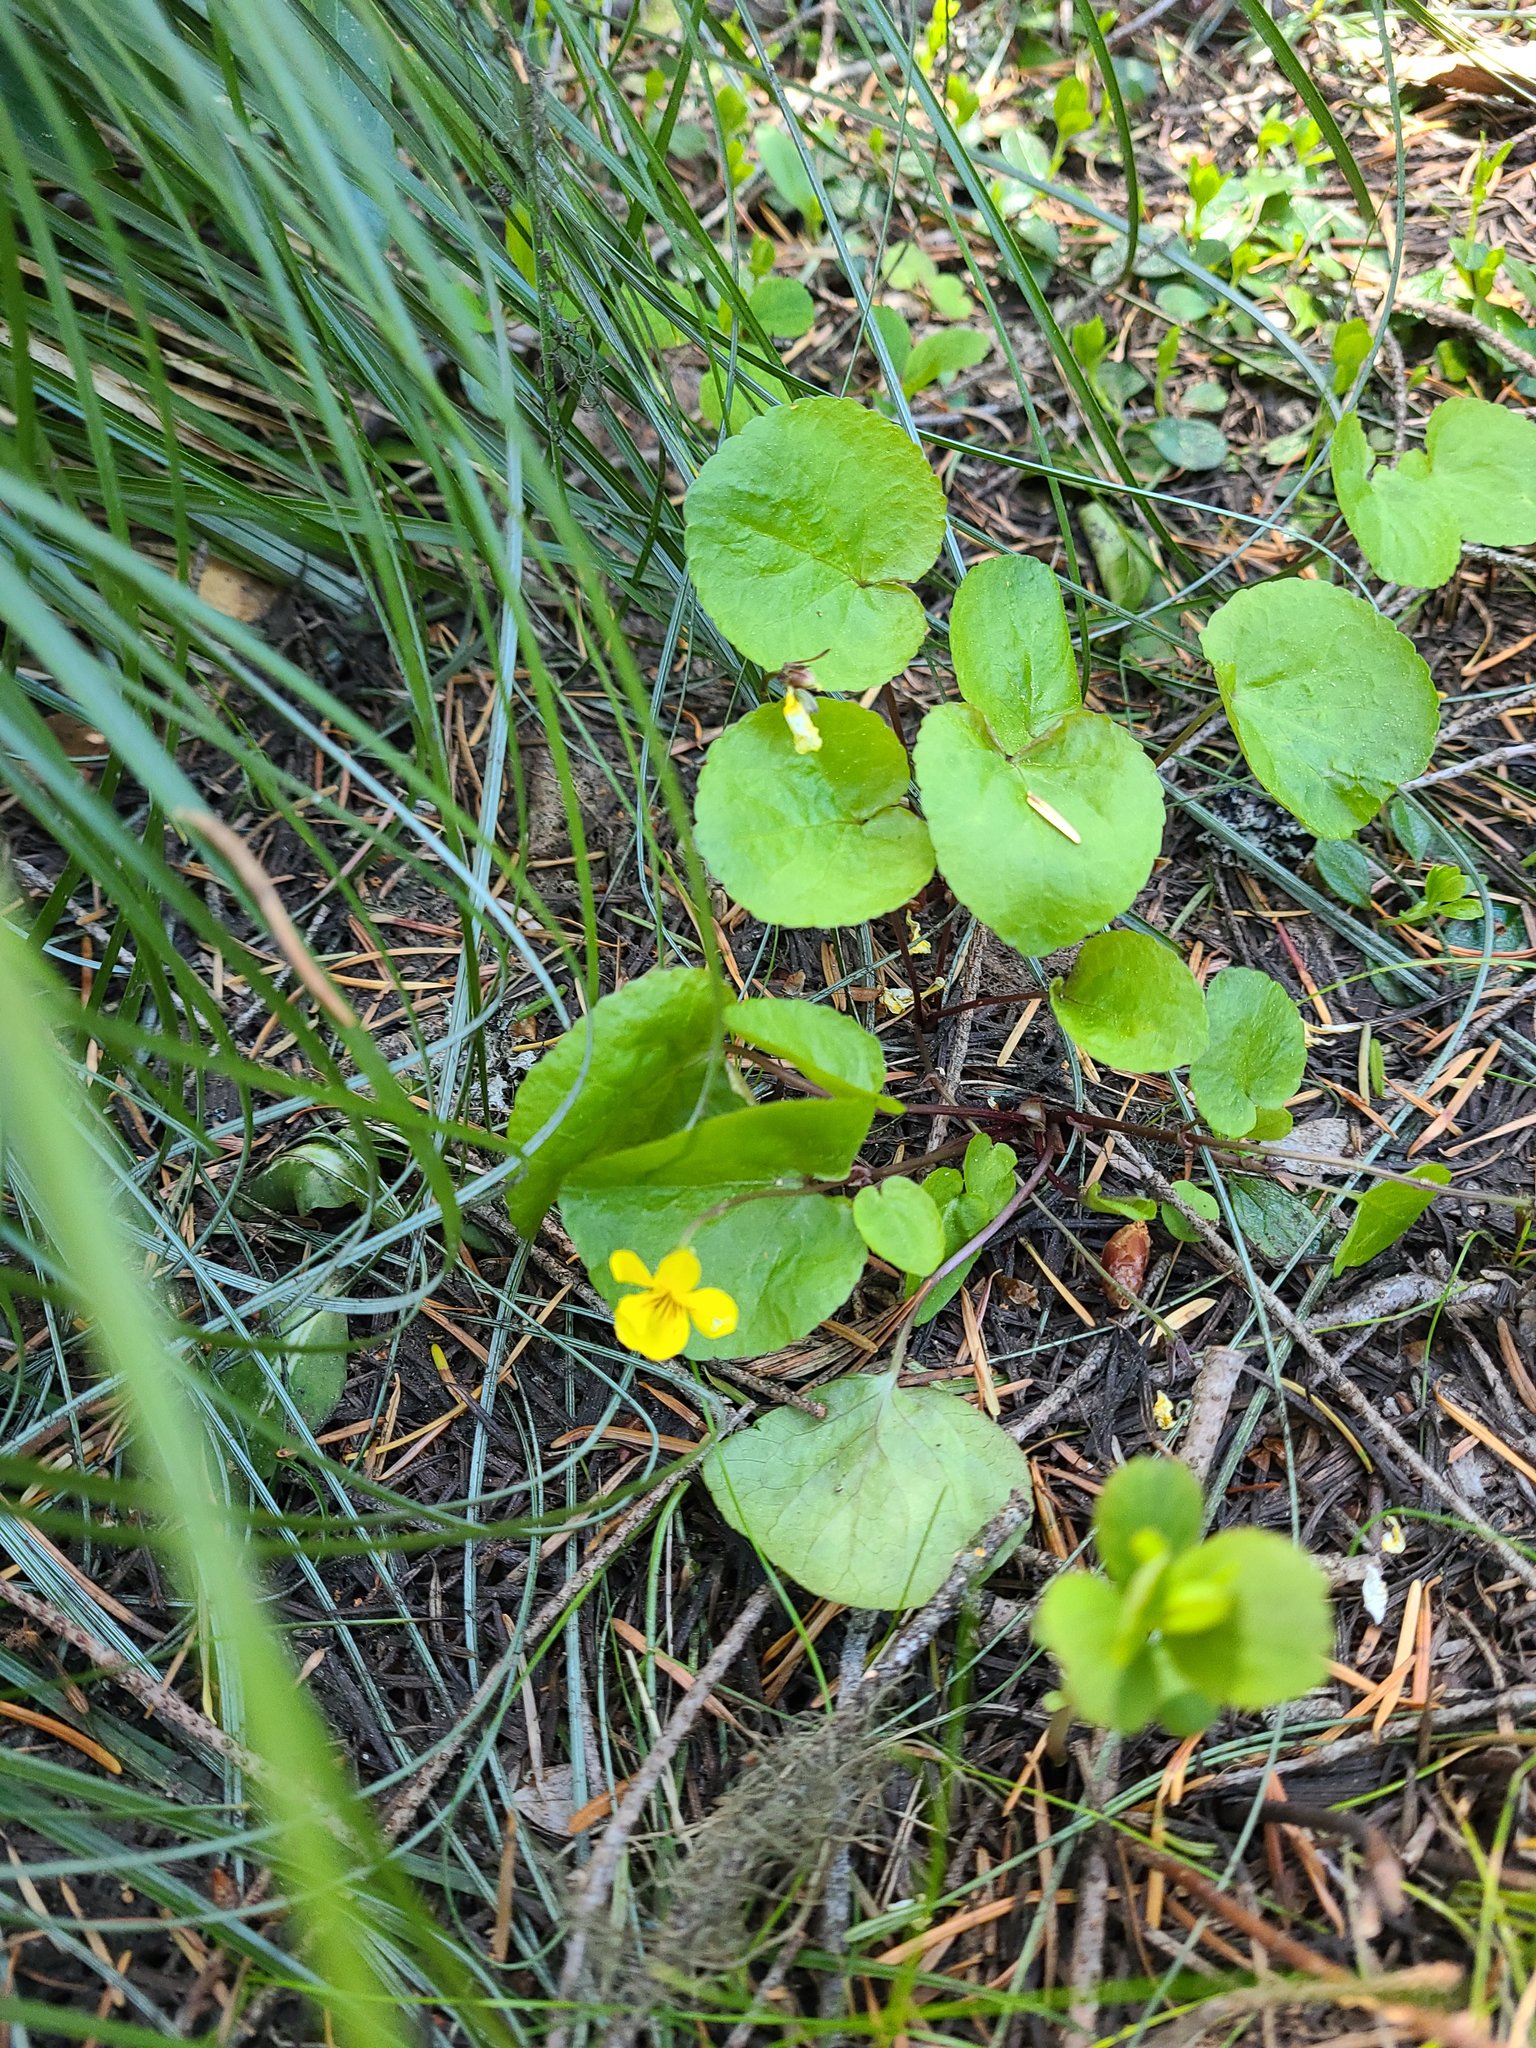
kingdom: Plantae
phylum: Tracheophyta
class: Magnoliopsida
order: Malpighiales
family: Violaceae
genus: Viola
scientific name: Viola sempervirens
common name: Evergreen violet
